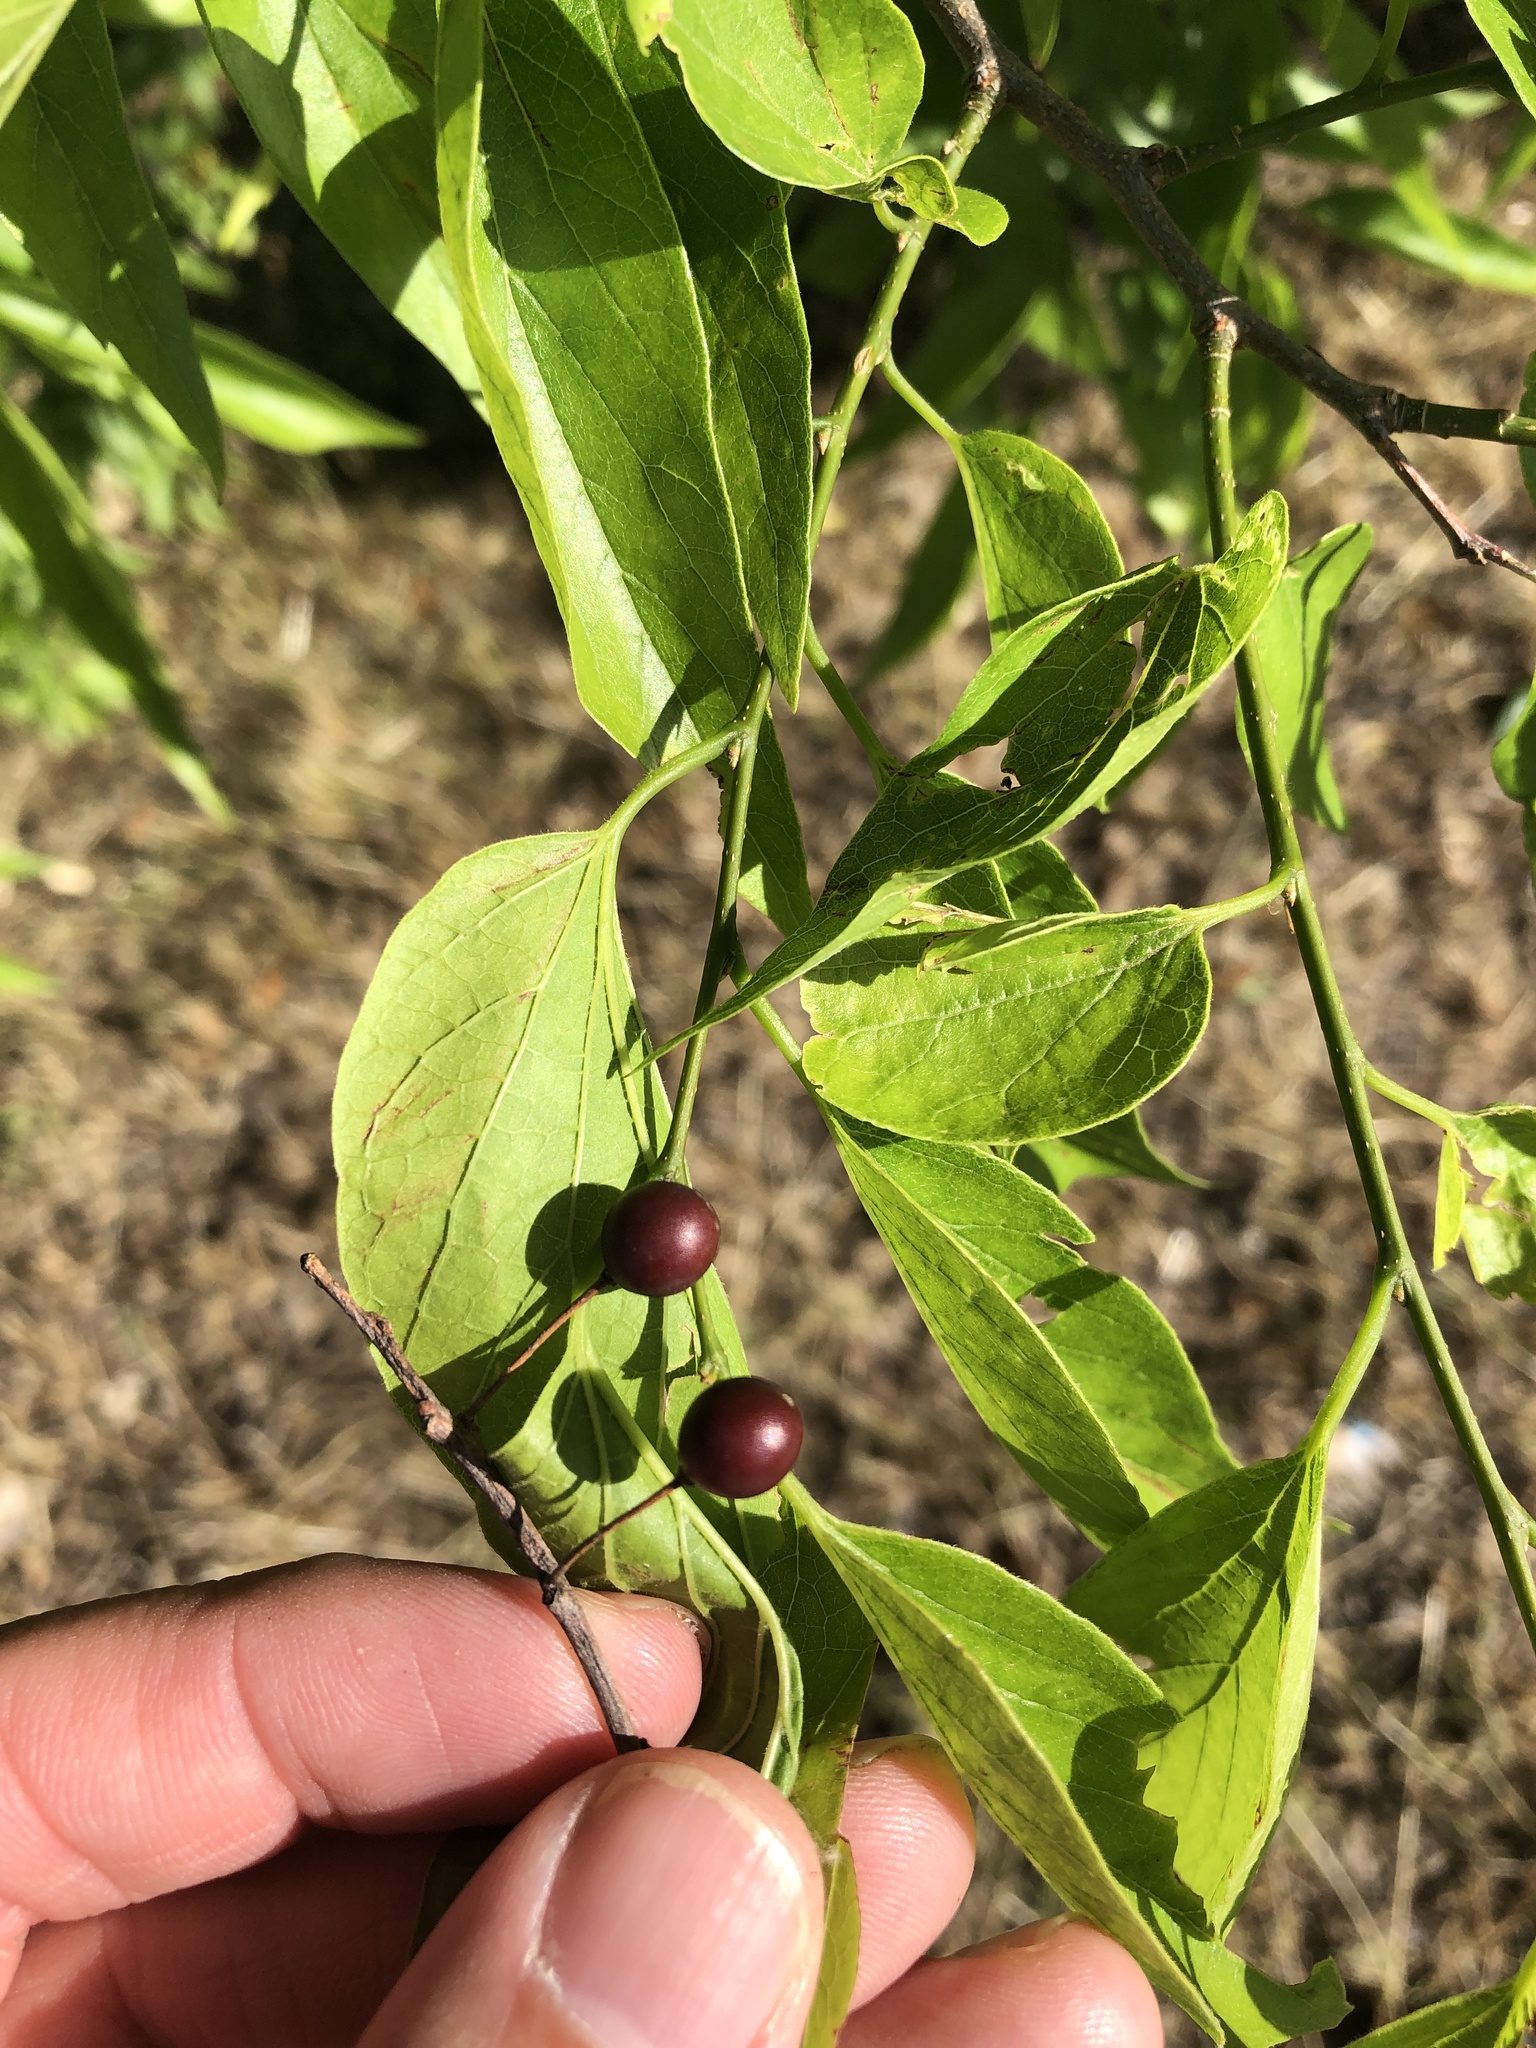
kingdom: Plantae
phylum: Tracheophyta
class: Magnoliopsida
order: Rosales
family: Cannabaceae
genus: Celtis
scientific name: Celtis laevigata
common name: Sugarberry
